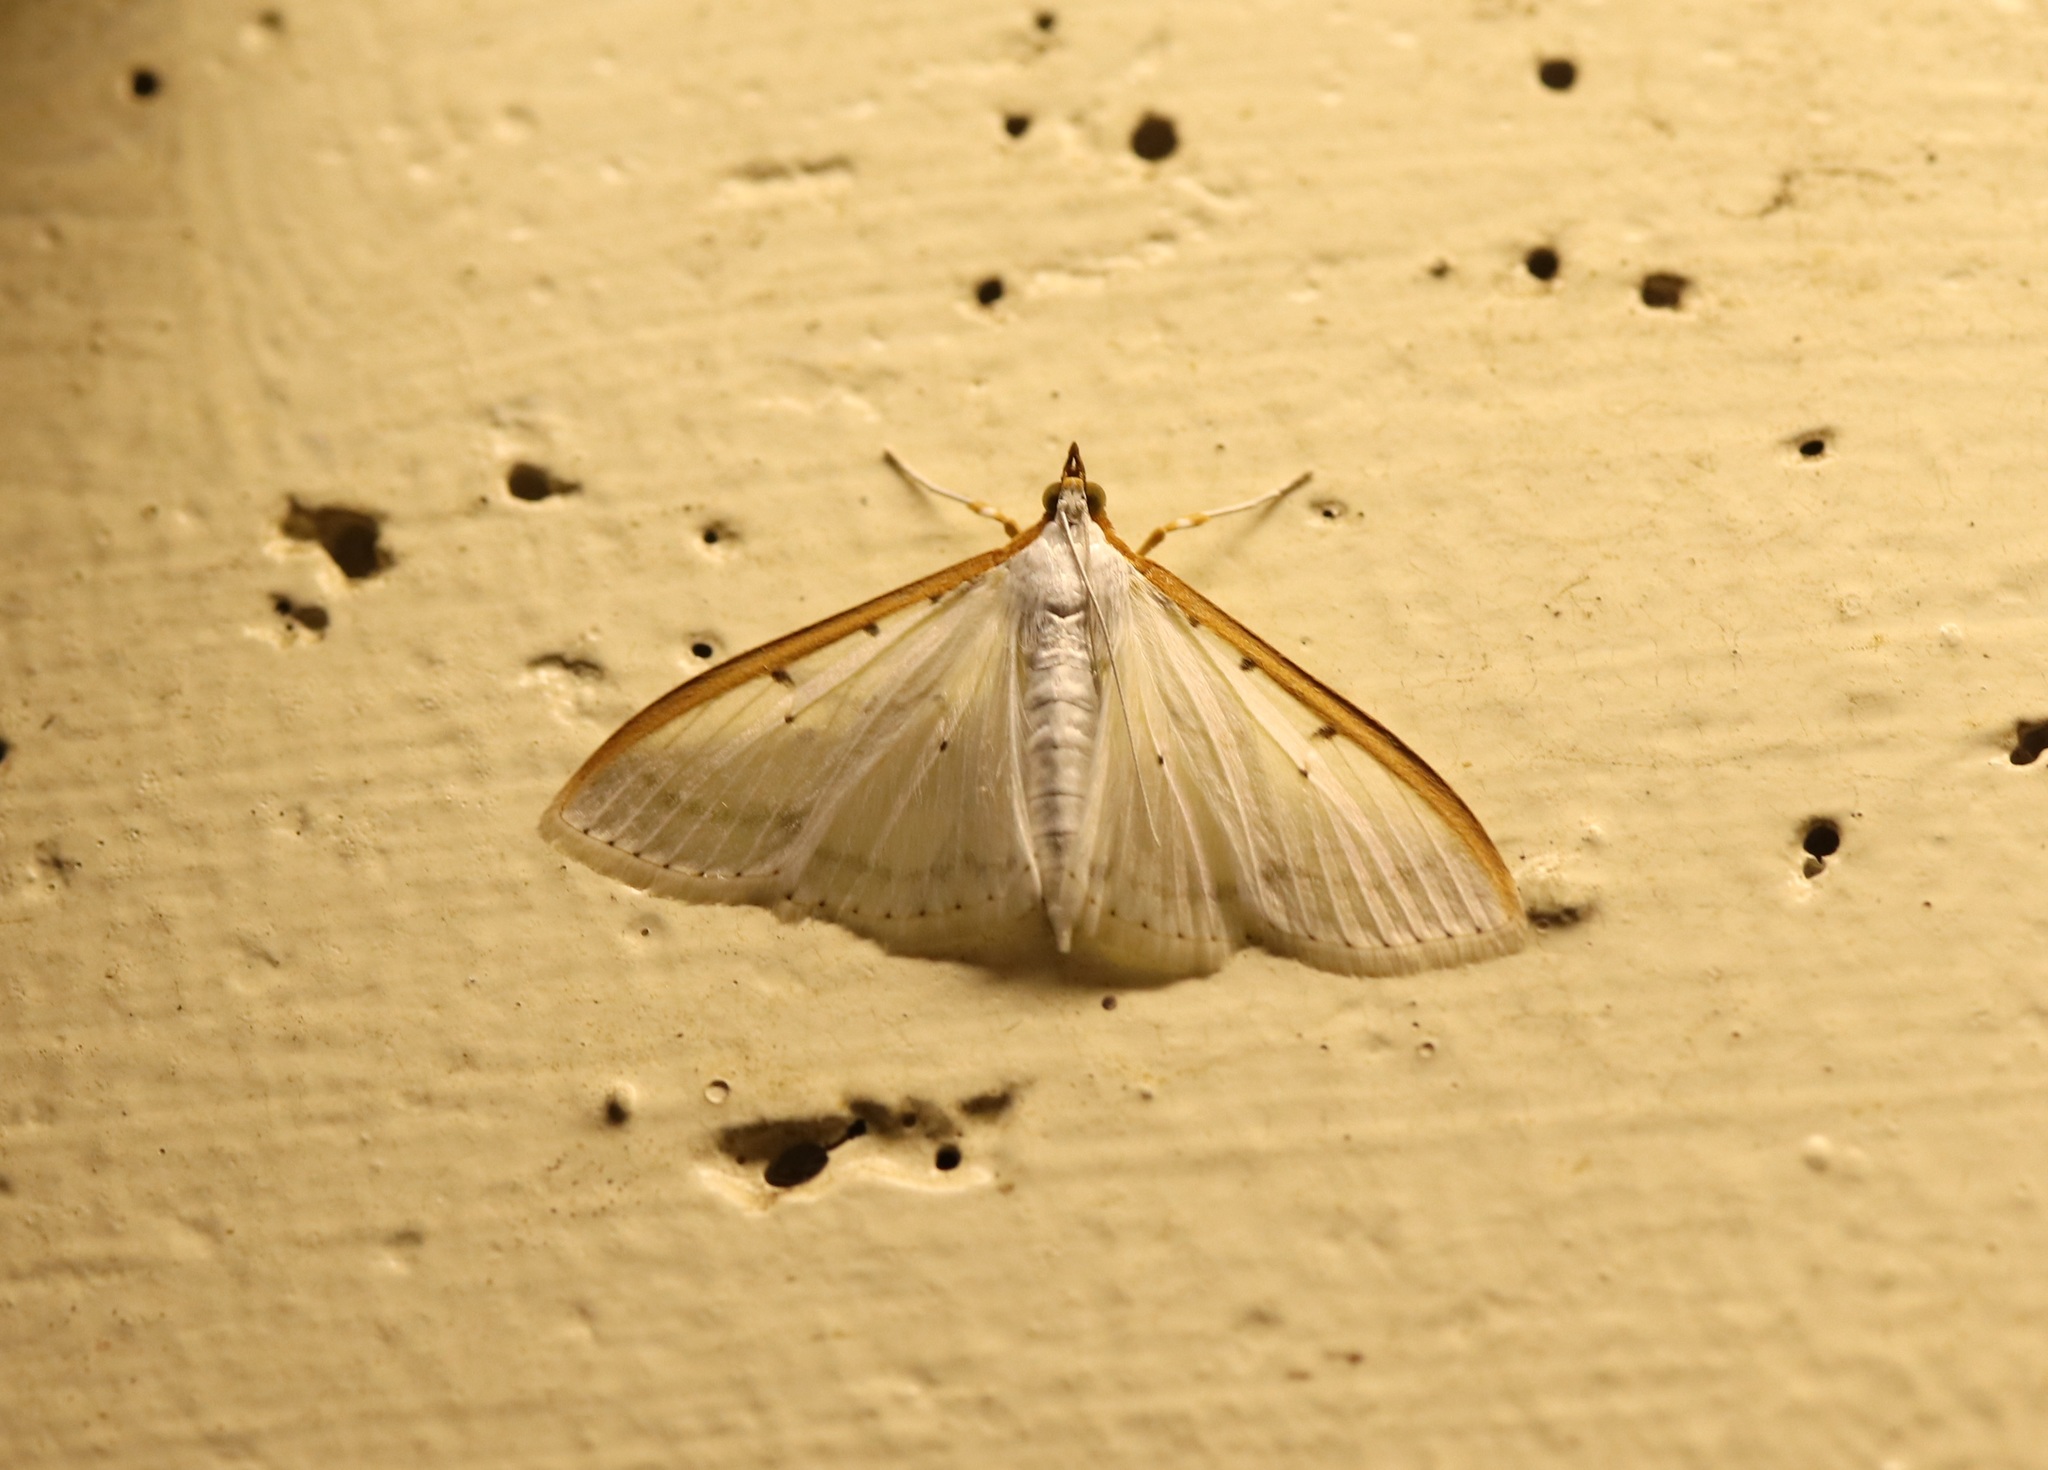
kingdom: Animalia
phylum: Arthropoda
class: Insecta
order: Lepidoptera
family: Crambidae
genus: Palpita
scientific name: Palpita nigropunctalis
